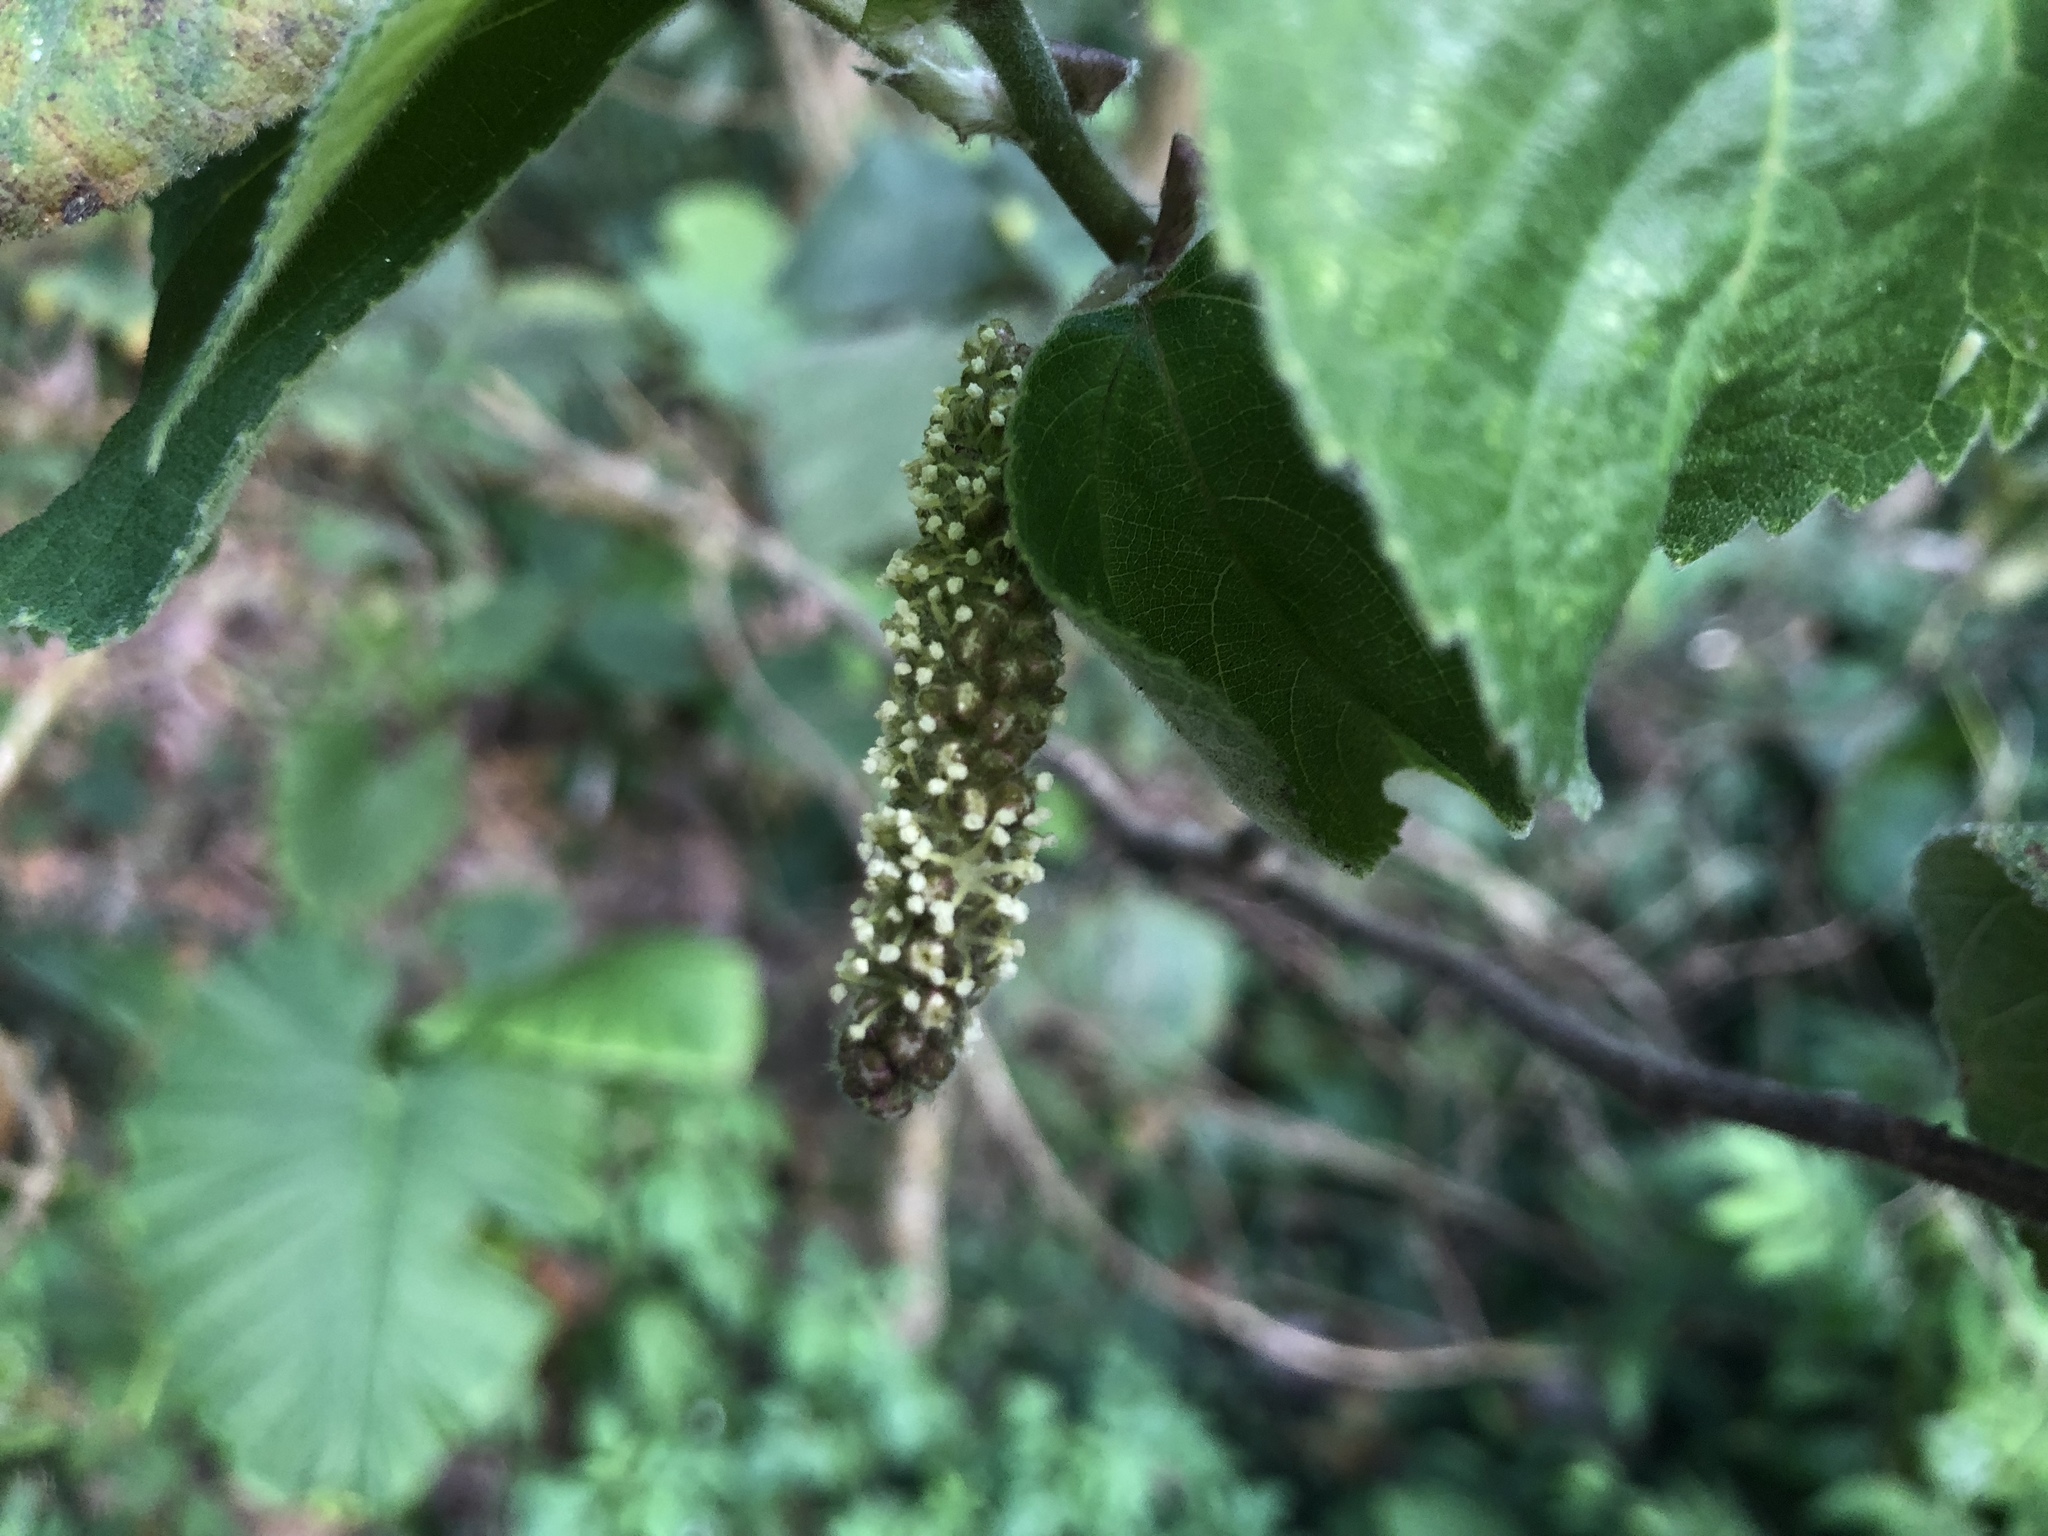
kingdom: Plantae
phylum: Tracheophyta
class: Magnoliopsida
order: Rosales
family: Moraceae
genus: Broussonetia
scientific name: Broussonetia papyrifera
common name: Paper mulberry
